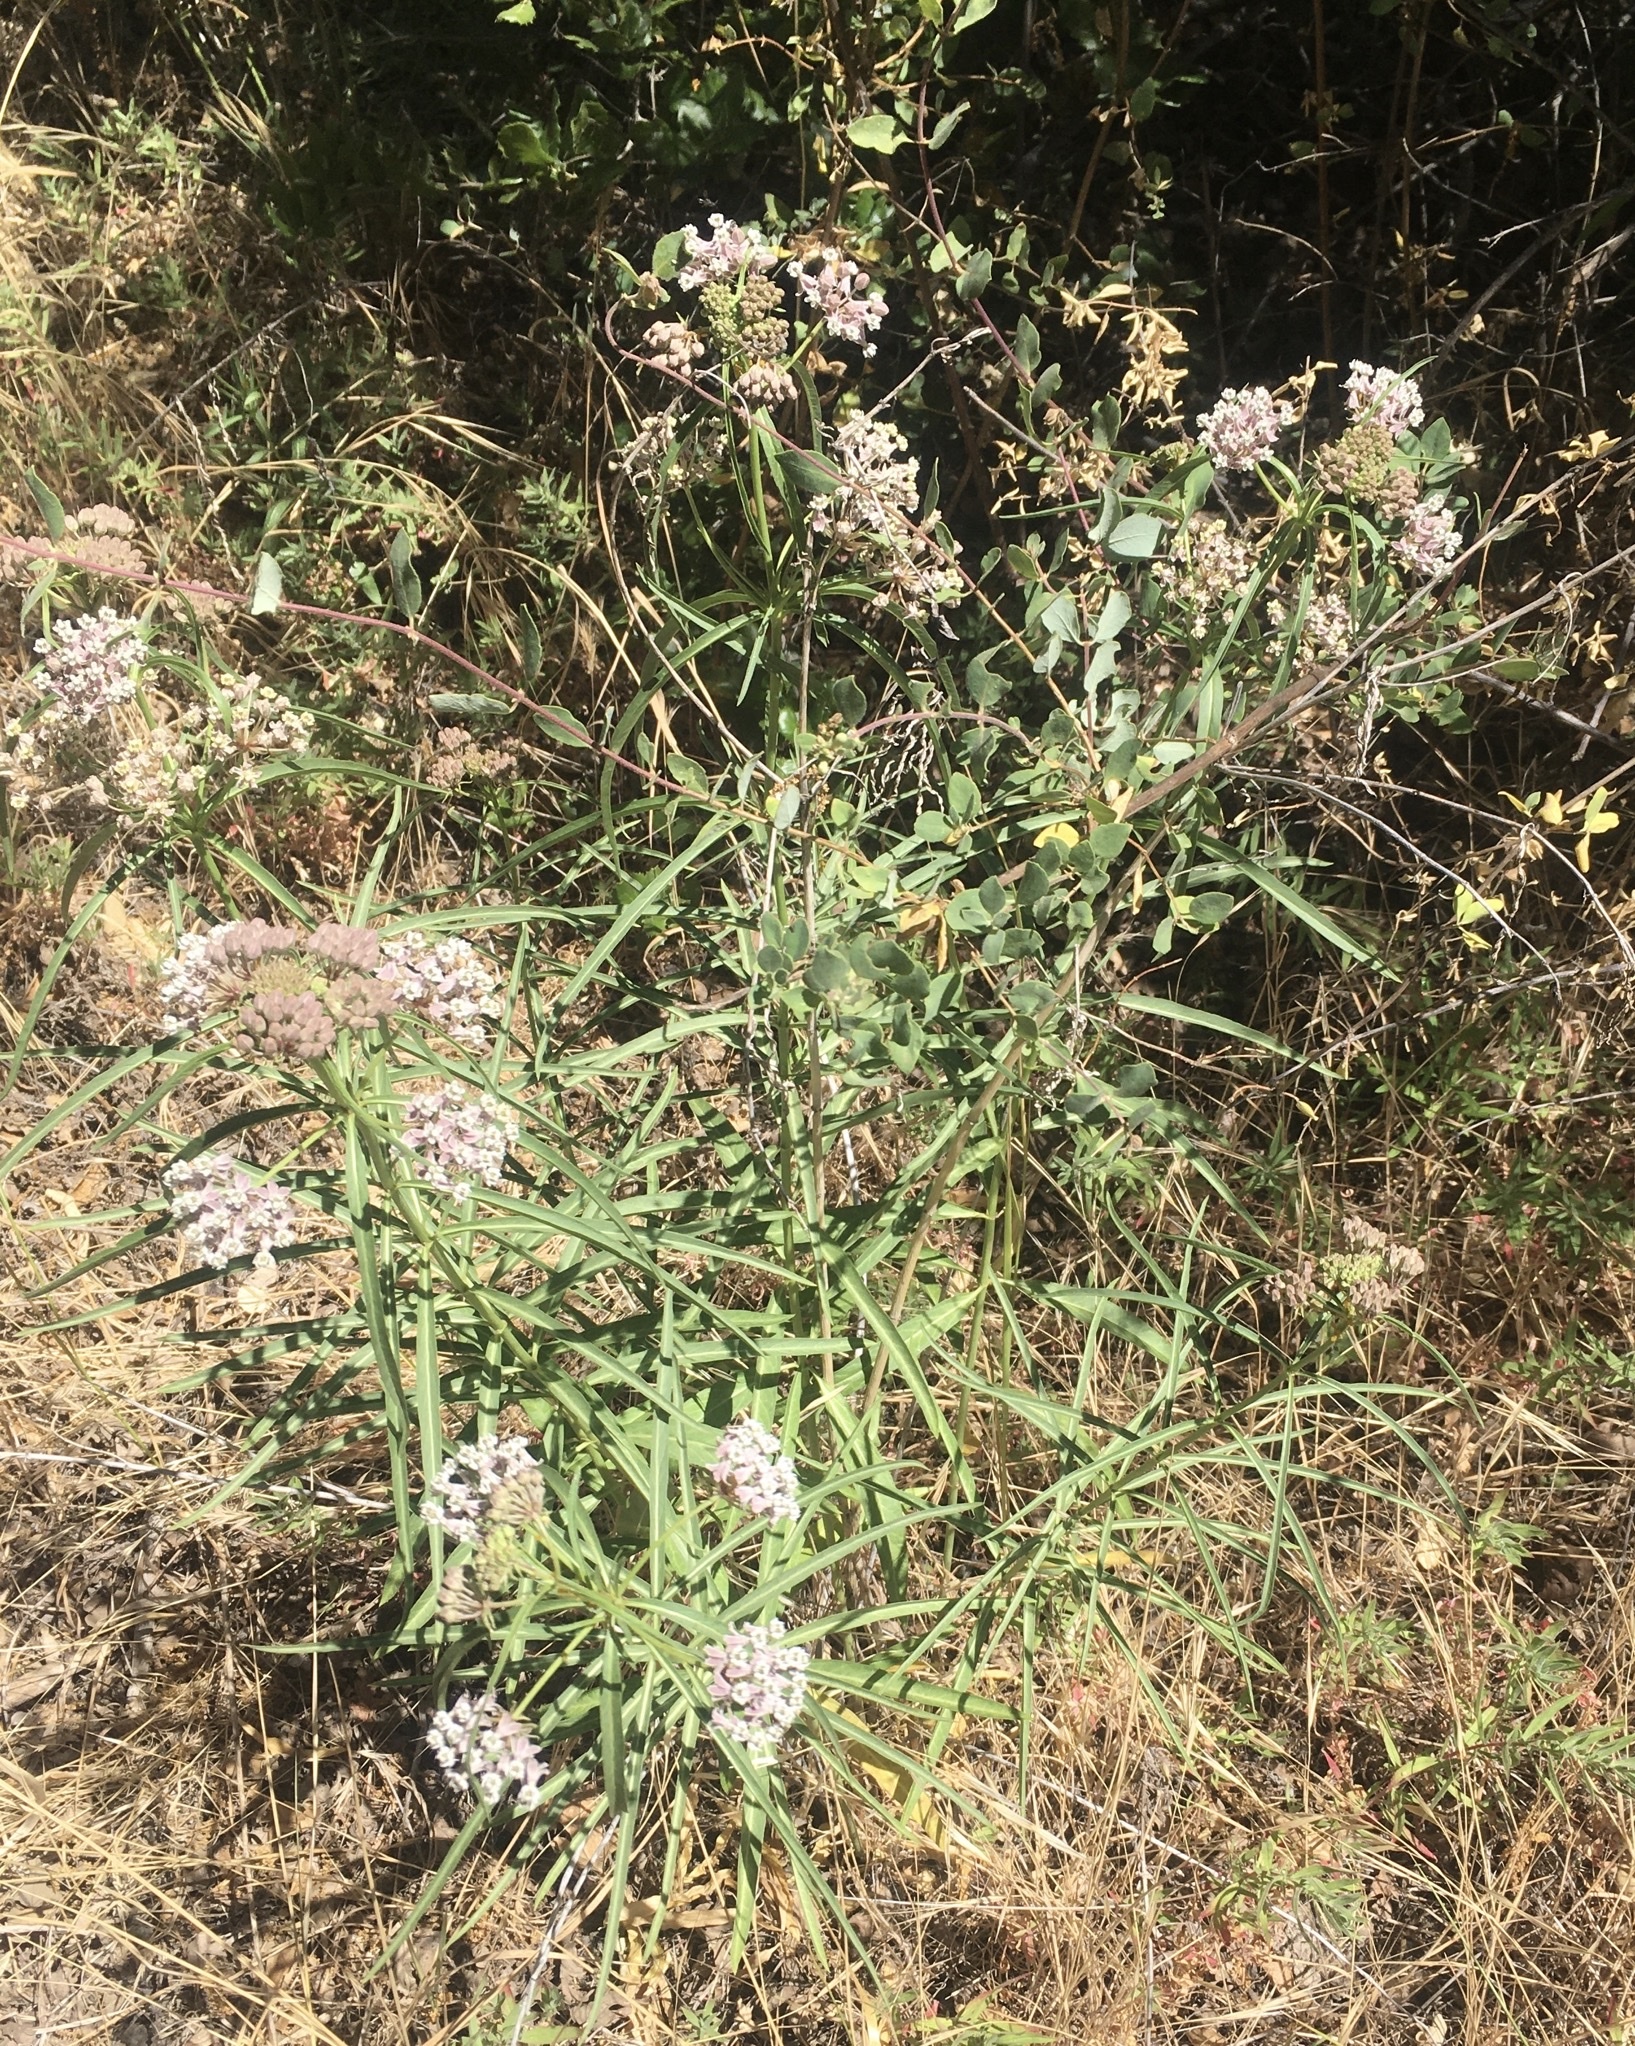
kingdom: Plantae
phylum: Tracheophyta
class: Magnoliopsida
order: Gentianales
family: Apocynaceae
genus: Asclepias
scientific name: Asclepias fascicularis
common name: Mexican milkweed
